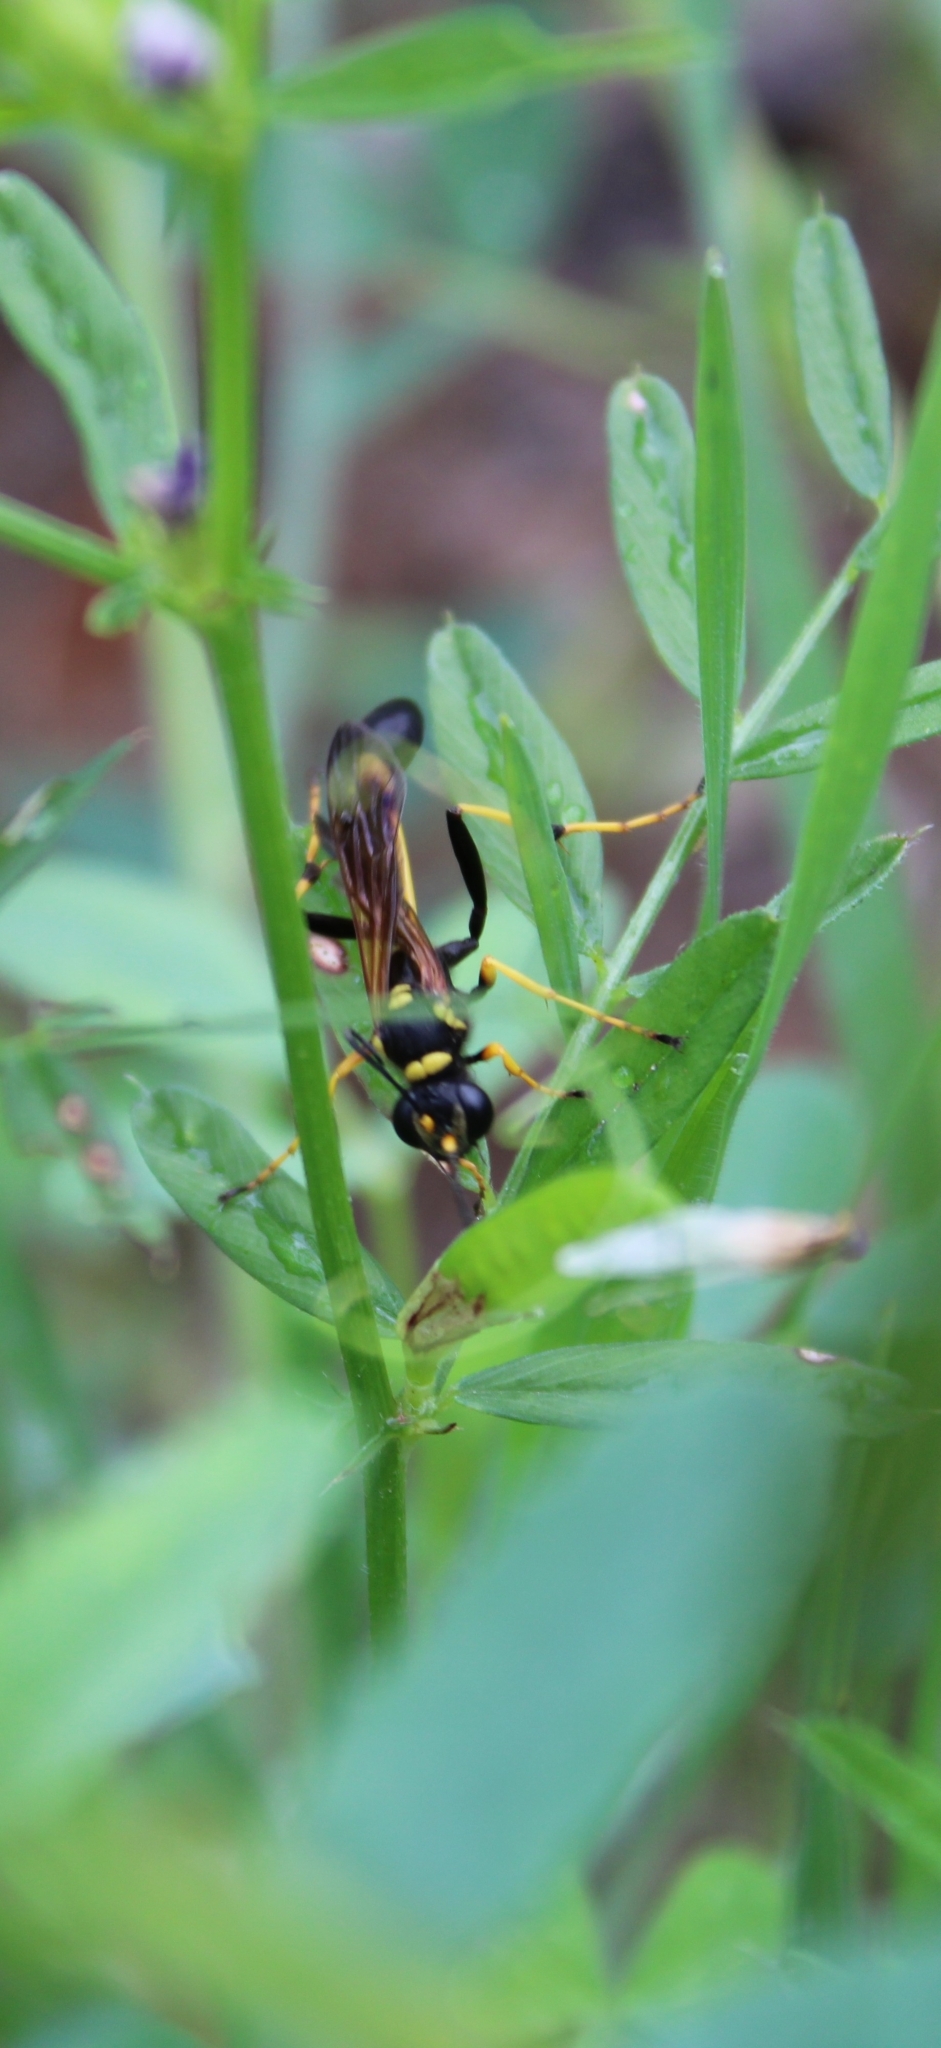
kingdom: Animalia
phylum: Arthropoda
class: Insecta
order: Hymenoptera
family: Sphecidae
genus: Sceliphron
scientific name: Sceliphron caementarium
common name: Mud dauber
